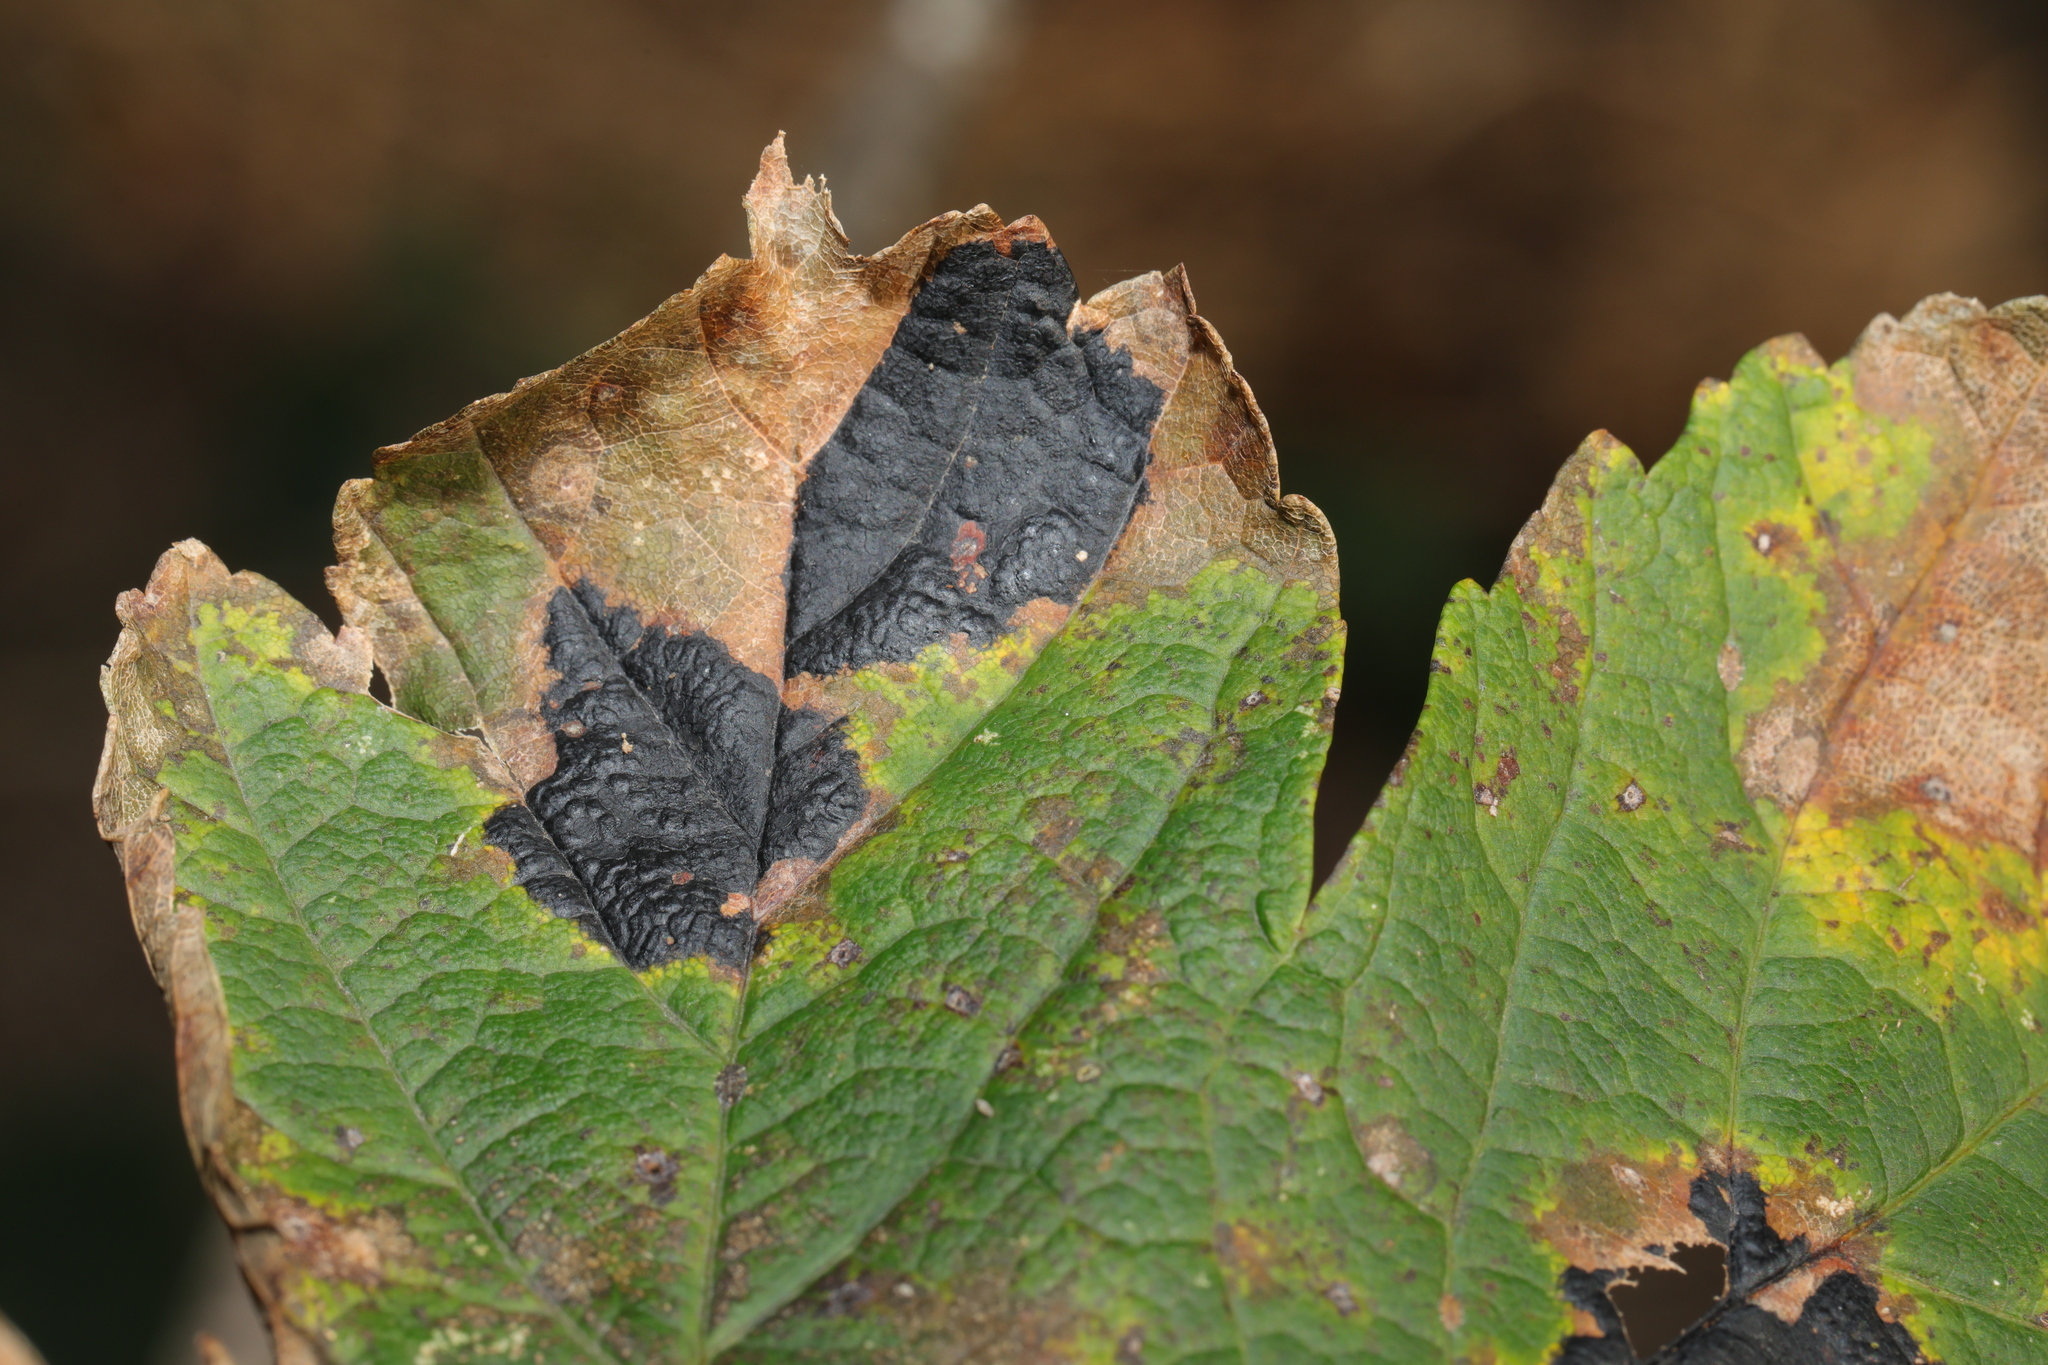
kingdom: Fungi
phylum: Ascomycota
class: Leotiomycetes
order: Rhytismatales
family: Rhytismataceae
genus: Rhytisma
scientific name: Rhytisma acerinum
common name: European tar spot
